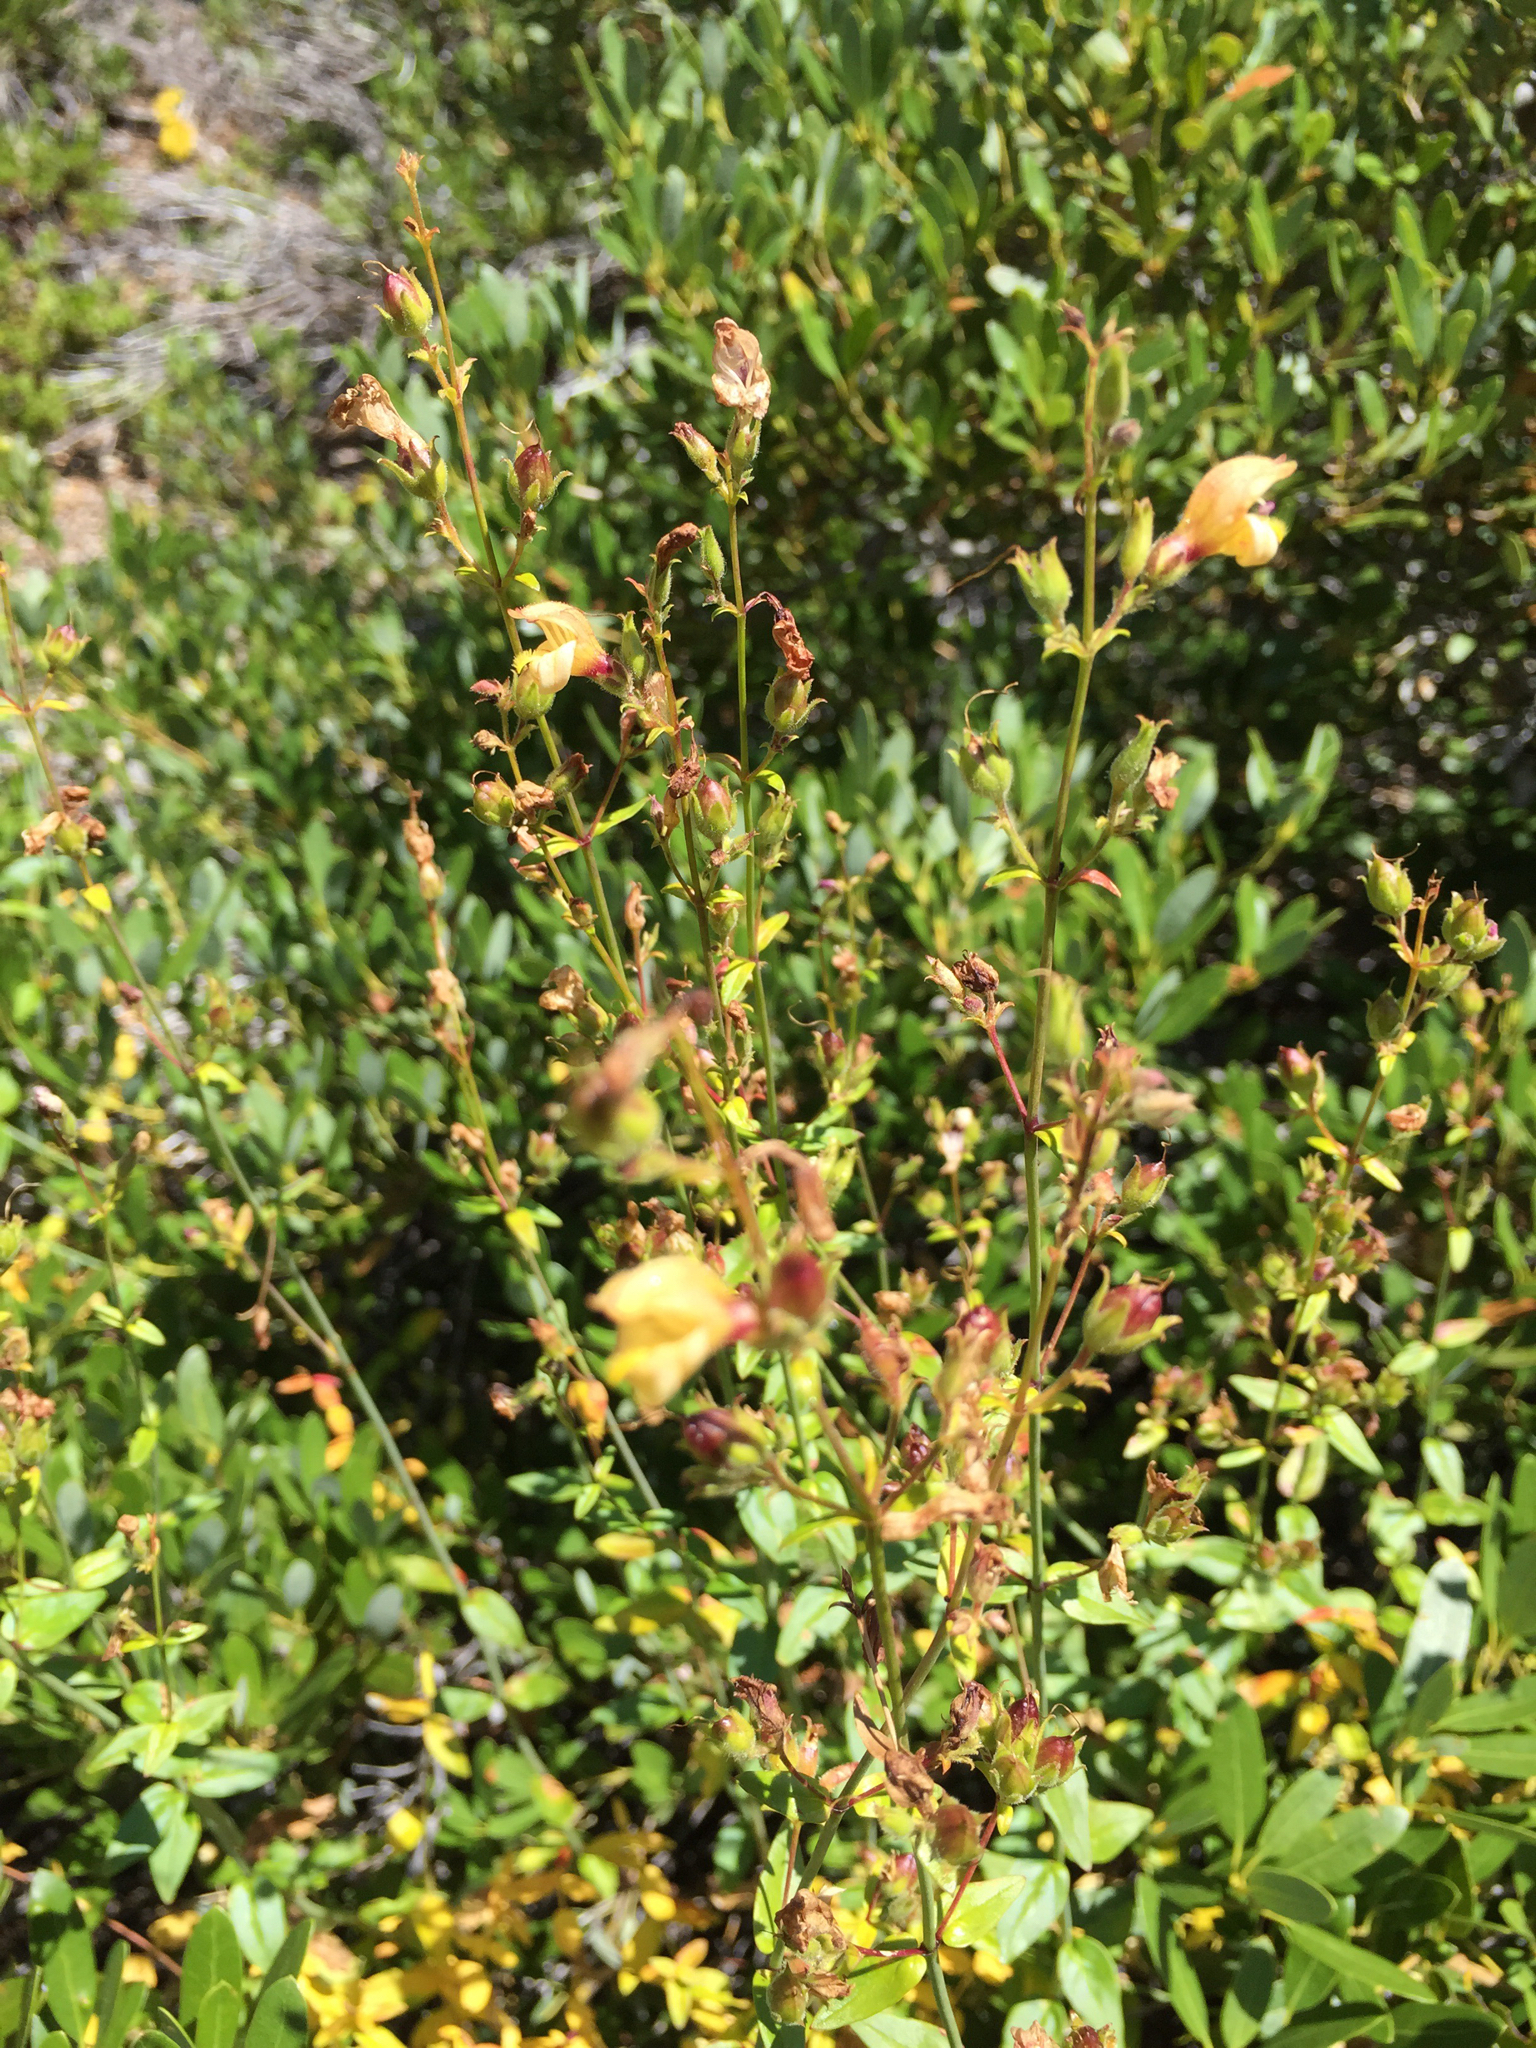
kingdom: Plantae
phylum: Tracheophyta
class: Magnoliopsida
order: Lamiales
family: Plantaginaceae
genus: Keckiella
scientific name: Keckiella lemmonii
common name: Lemmon's keckiella
